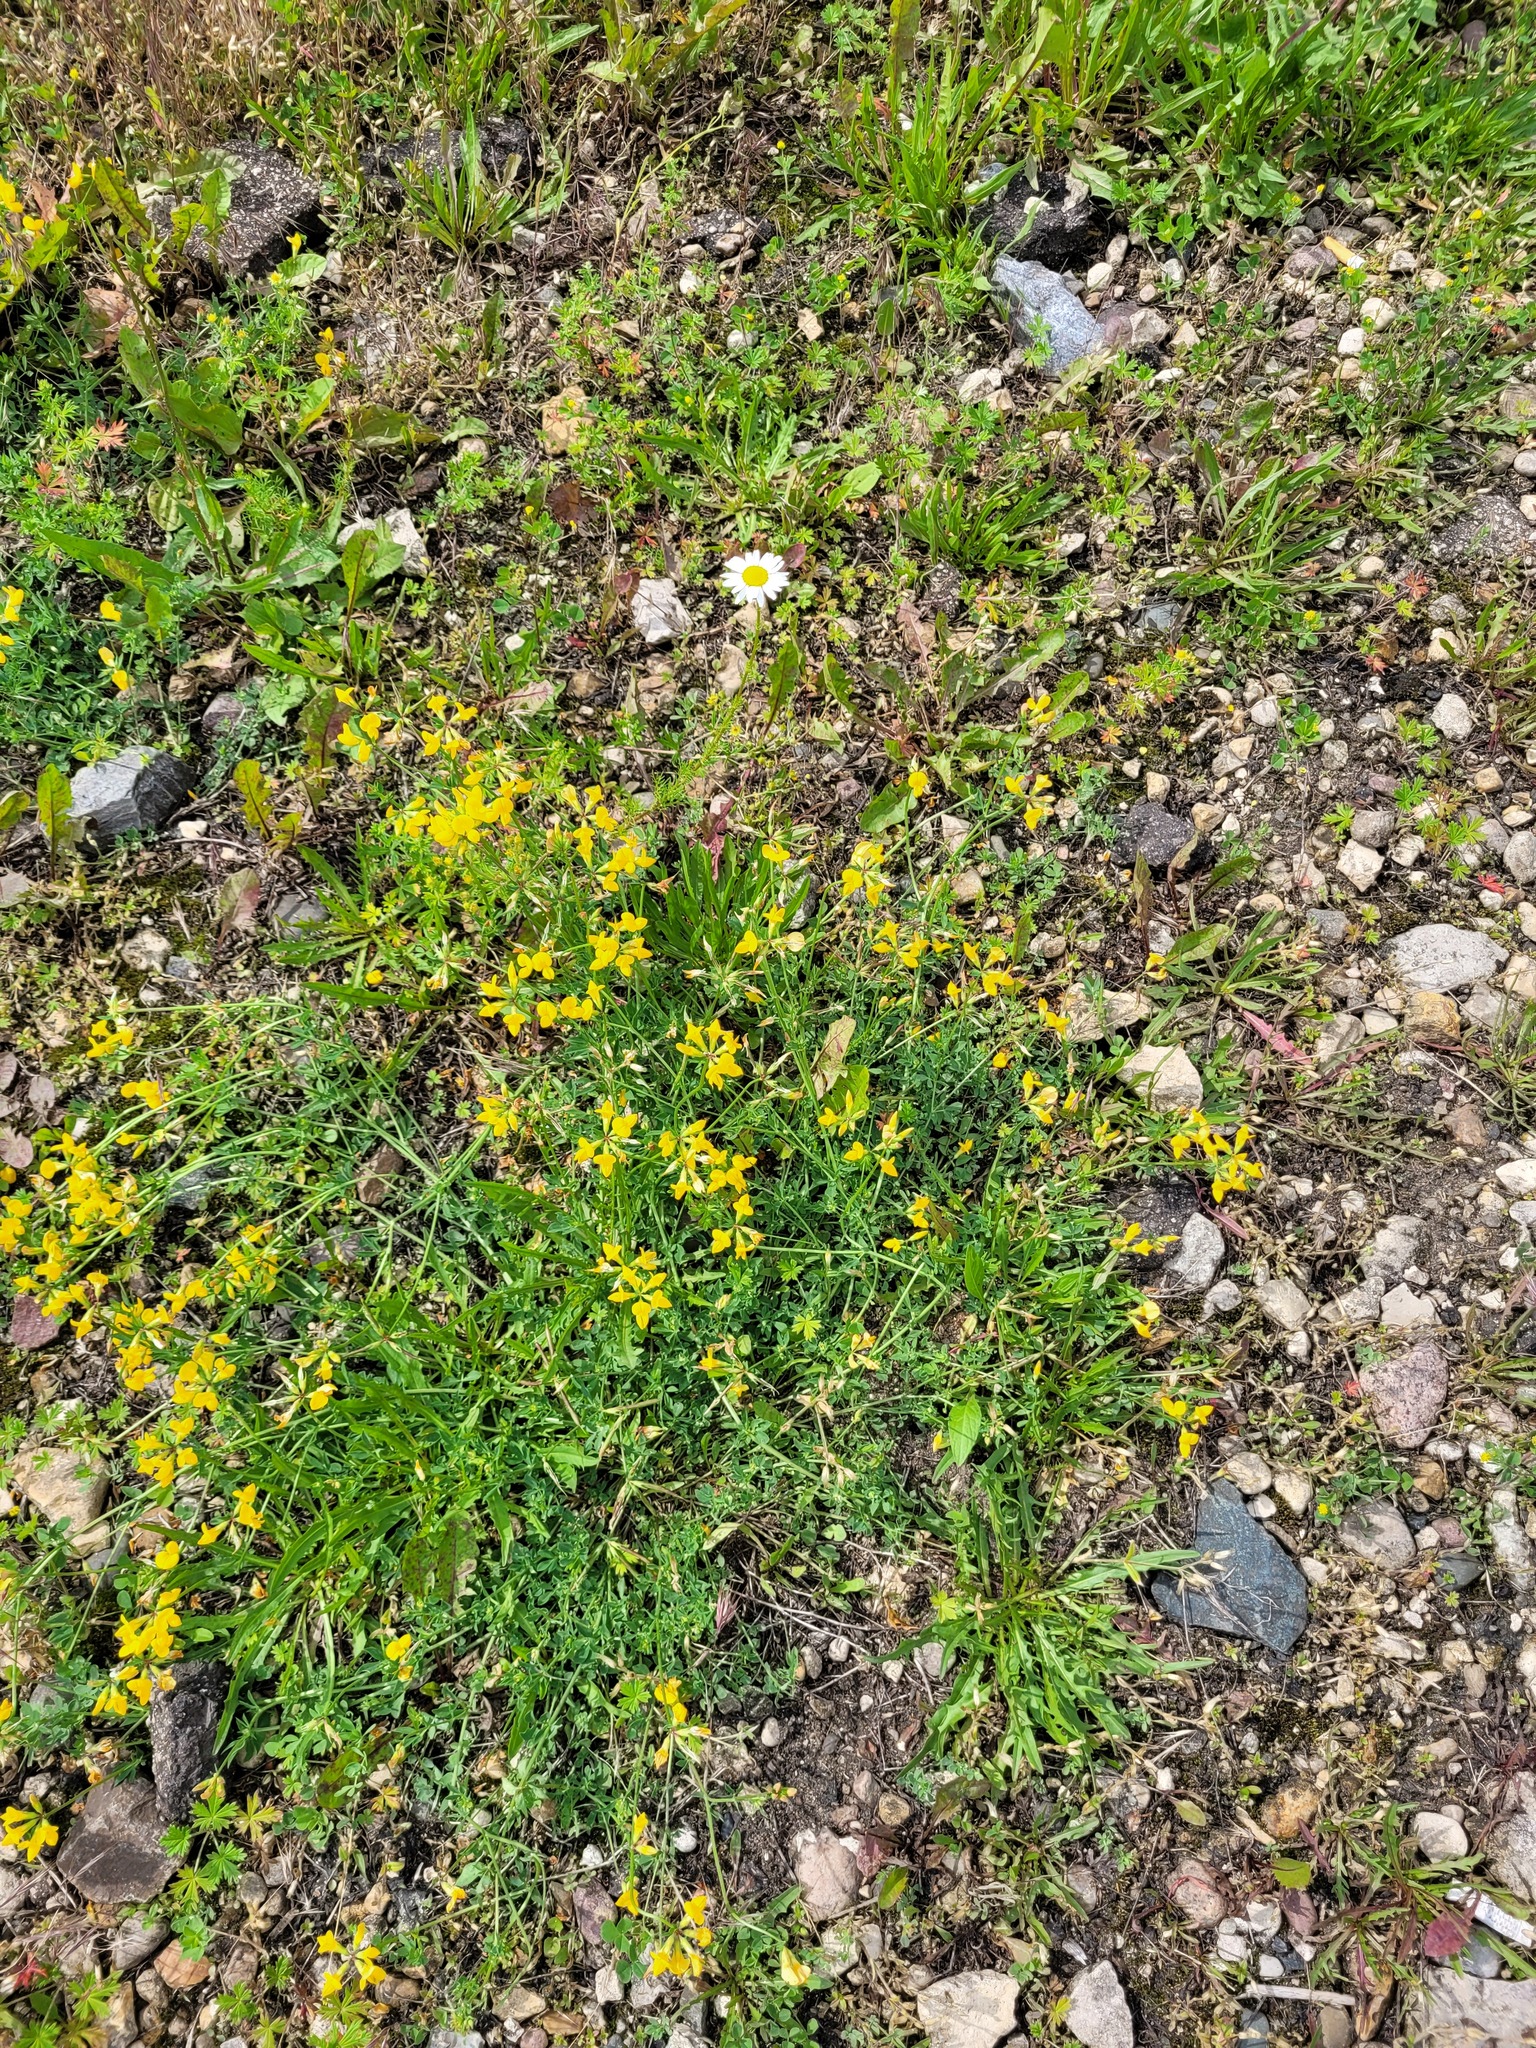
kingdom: Plantae
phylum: Tracheophyta
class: Magnoliopsida
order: Fabales
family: Fabaceae
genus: Lotus
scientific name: Lotus corniculatus
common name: Common bird's-foot-trefoil
